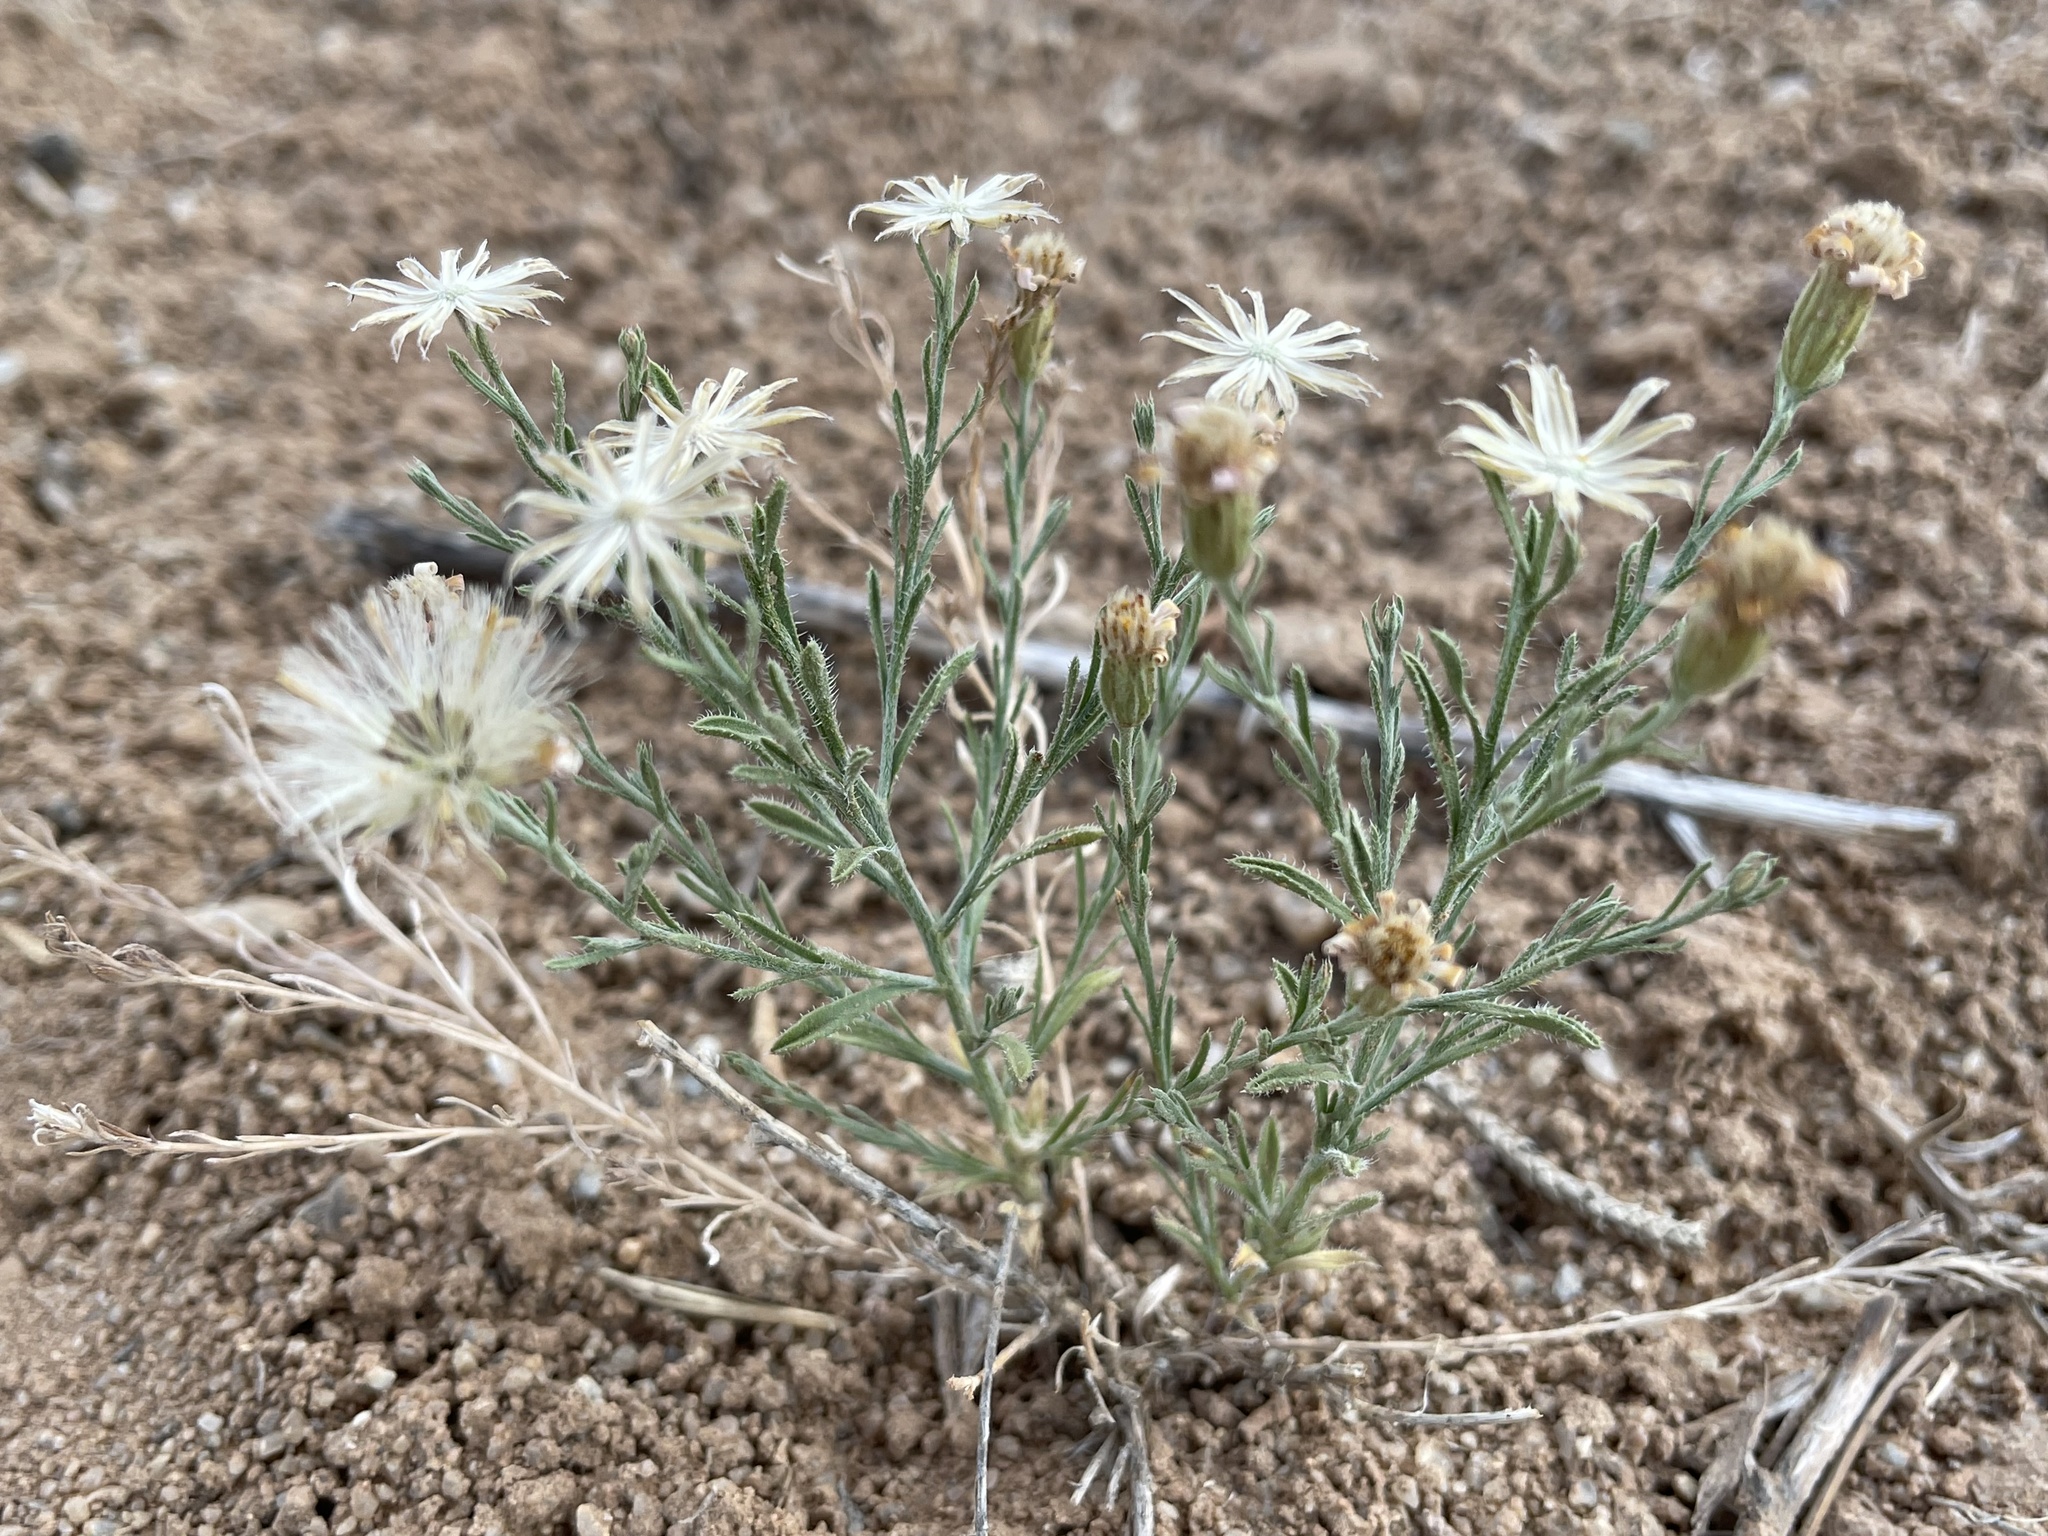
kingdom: Plantae
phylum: Tracheophyta
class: Magnoliopsida
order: Asterales
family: Asteraceae
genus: Chaetopappa
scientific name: Chaetopappa ericoides
